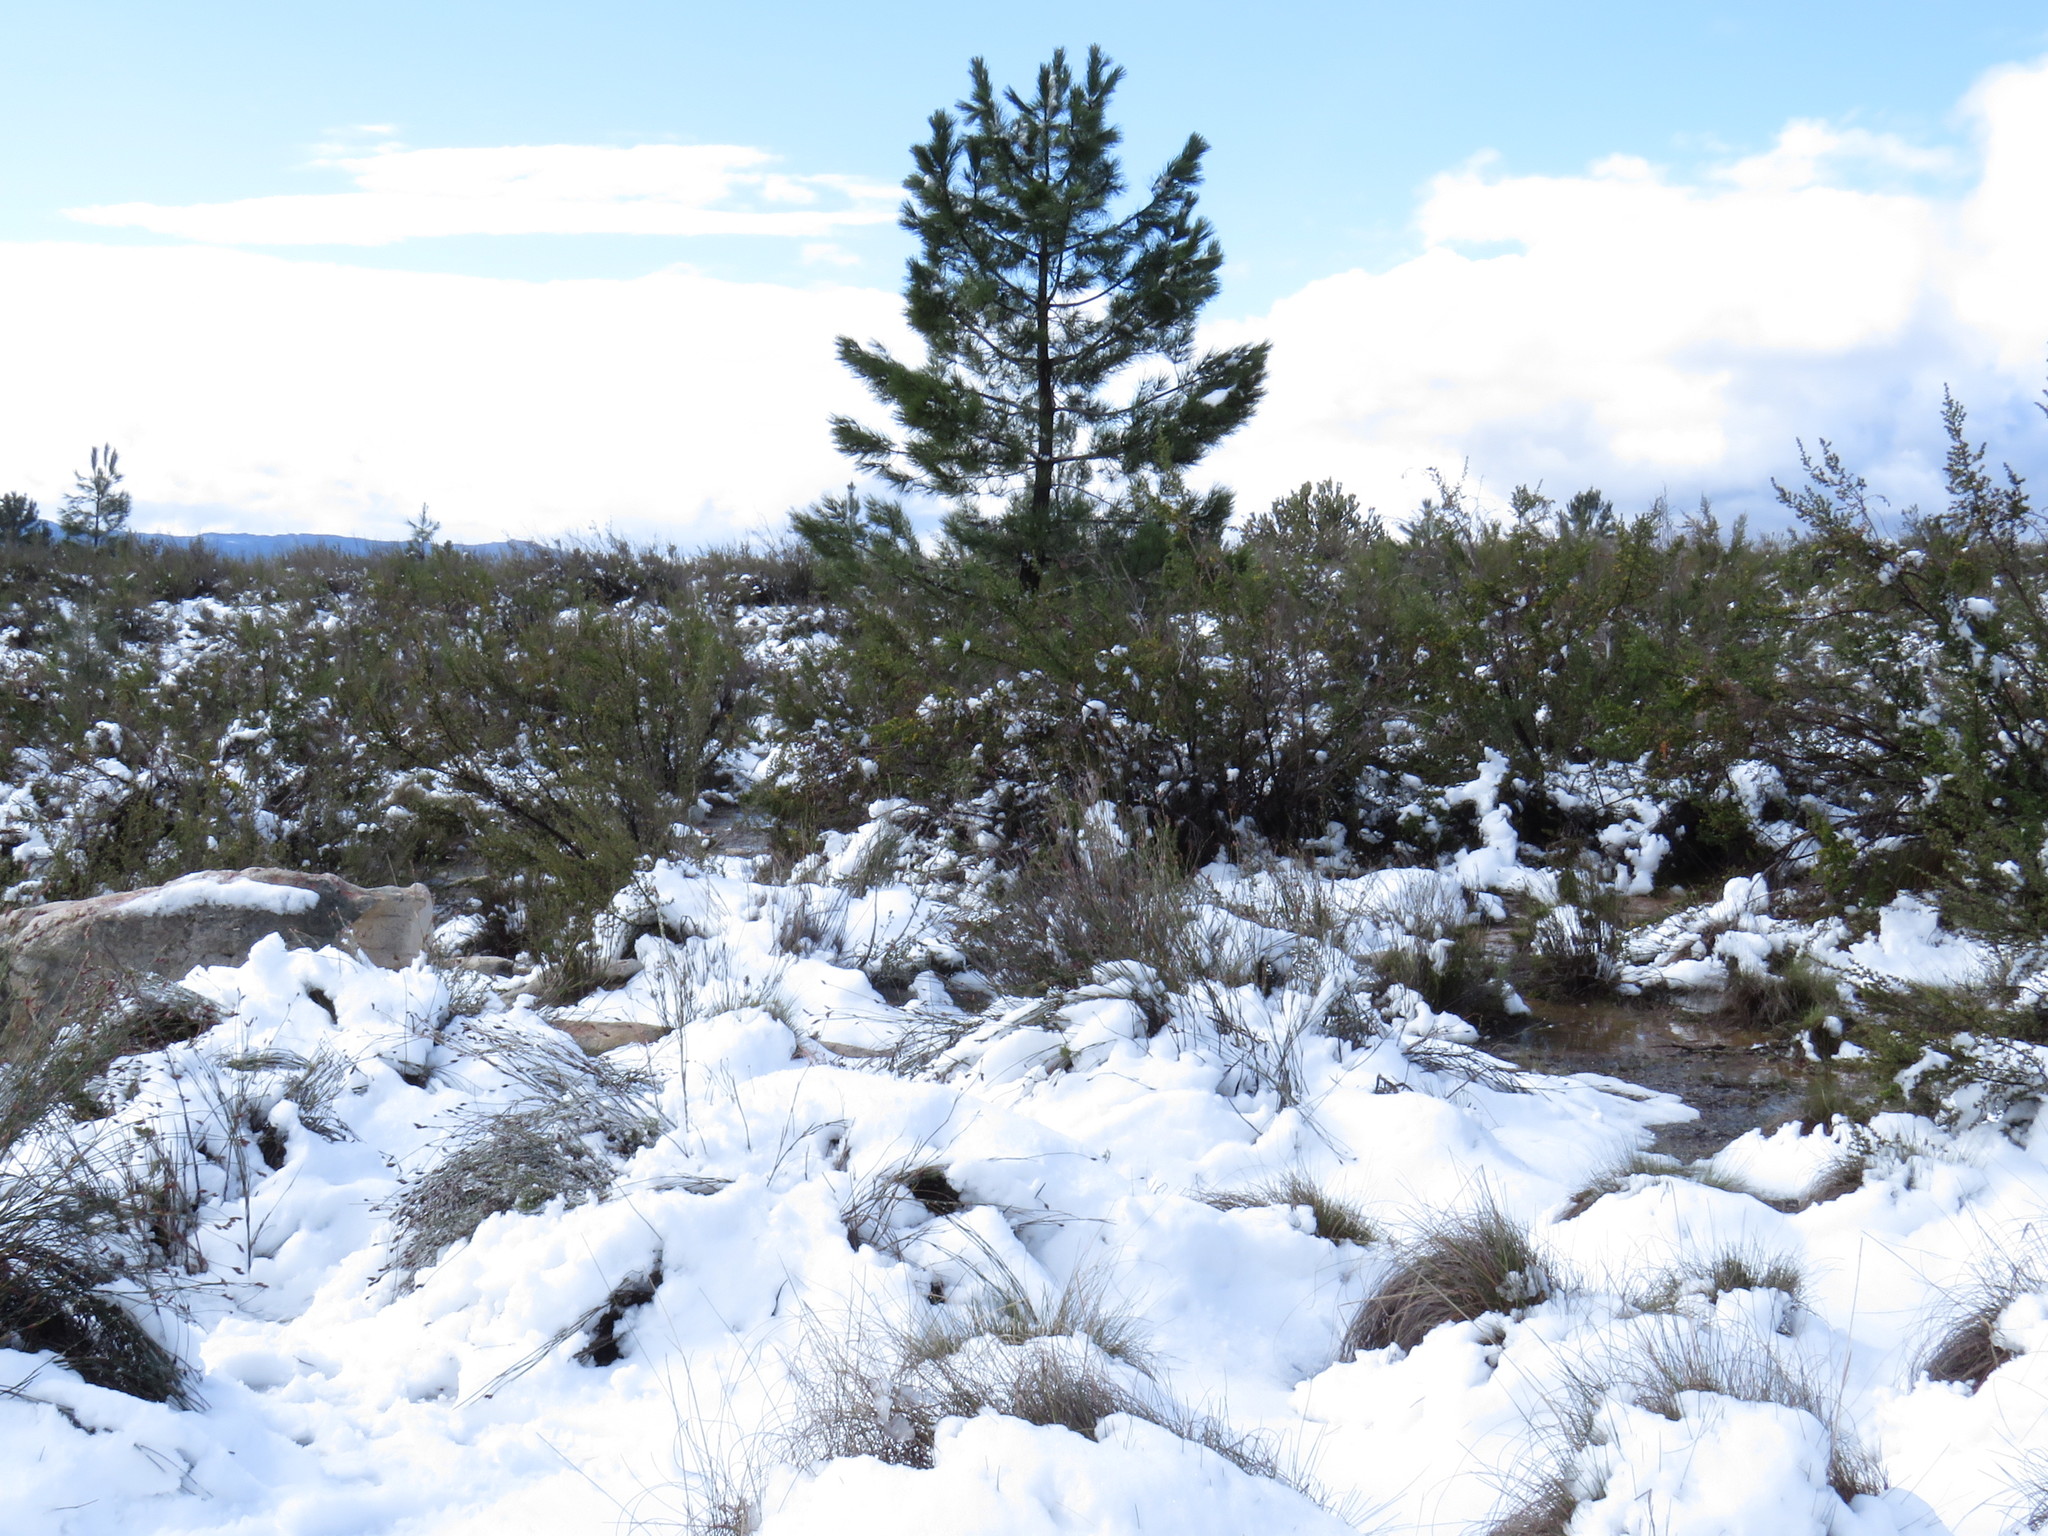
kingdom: Plantae
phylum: Tracheophyta
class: Pinopsida
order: Pinales
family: Pinaceae
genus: Pinus
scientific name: Pinus pinaster
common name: Maritime pine
